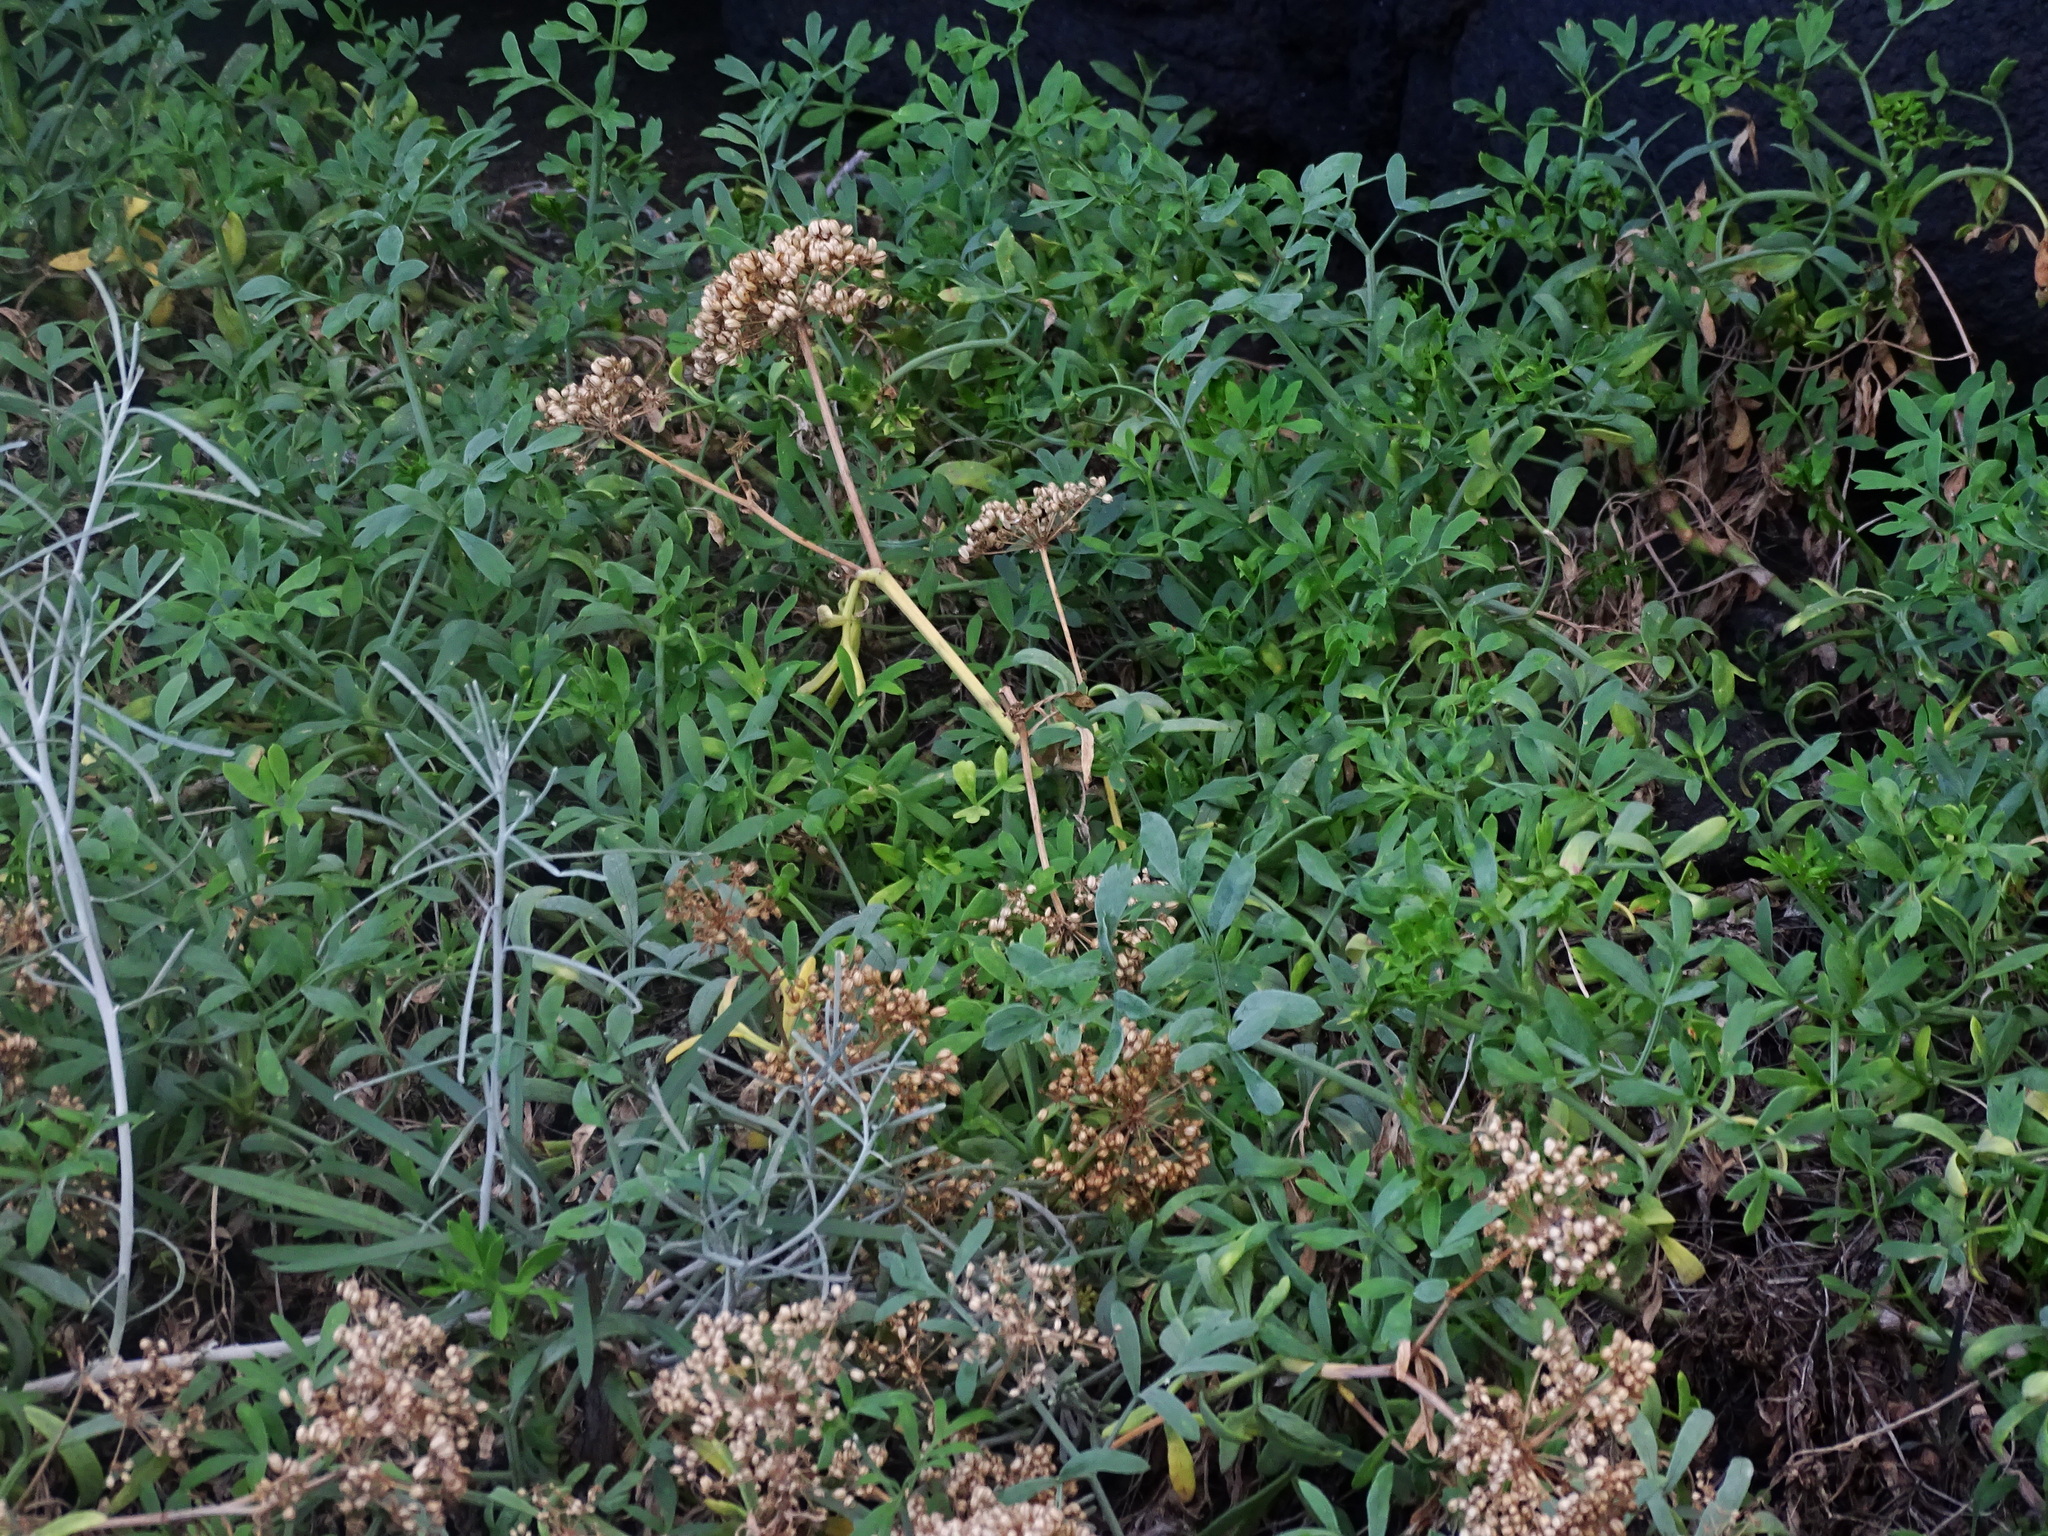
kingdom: Plantae
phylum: Tracheophyta
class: Magnoliopsida
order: Apiales
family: Apiaceae
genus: Crithmum
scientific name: Crithmum maritimum
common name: Rock samphire
